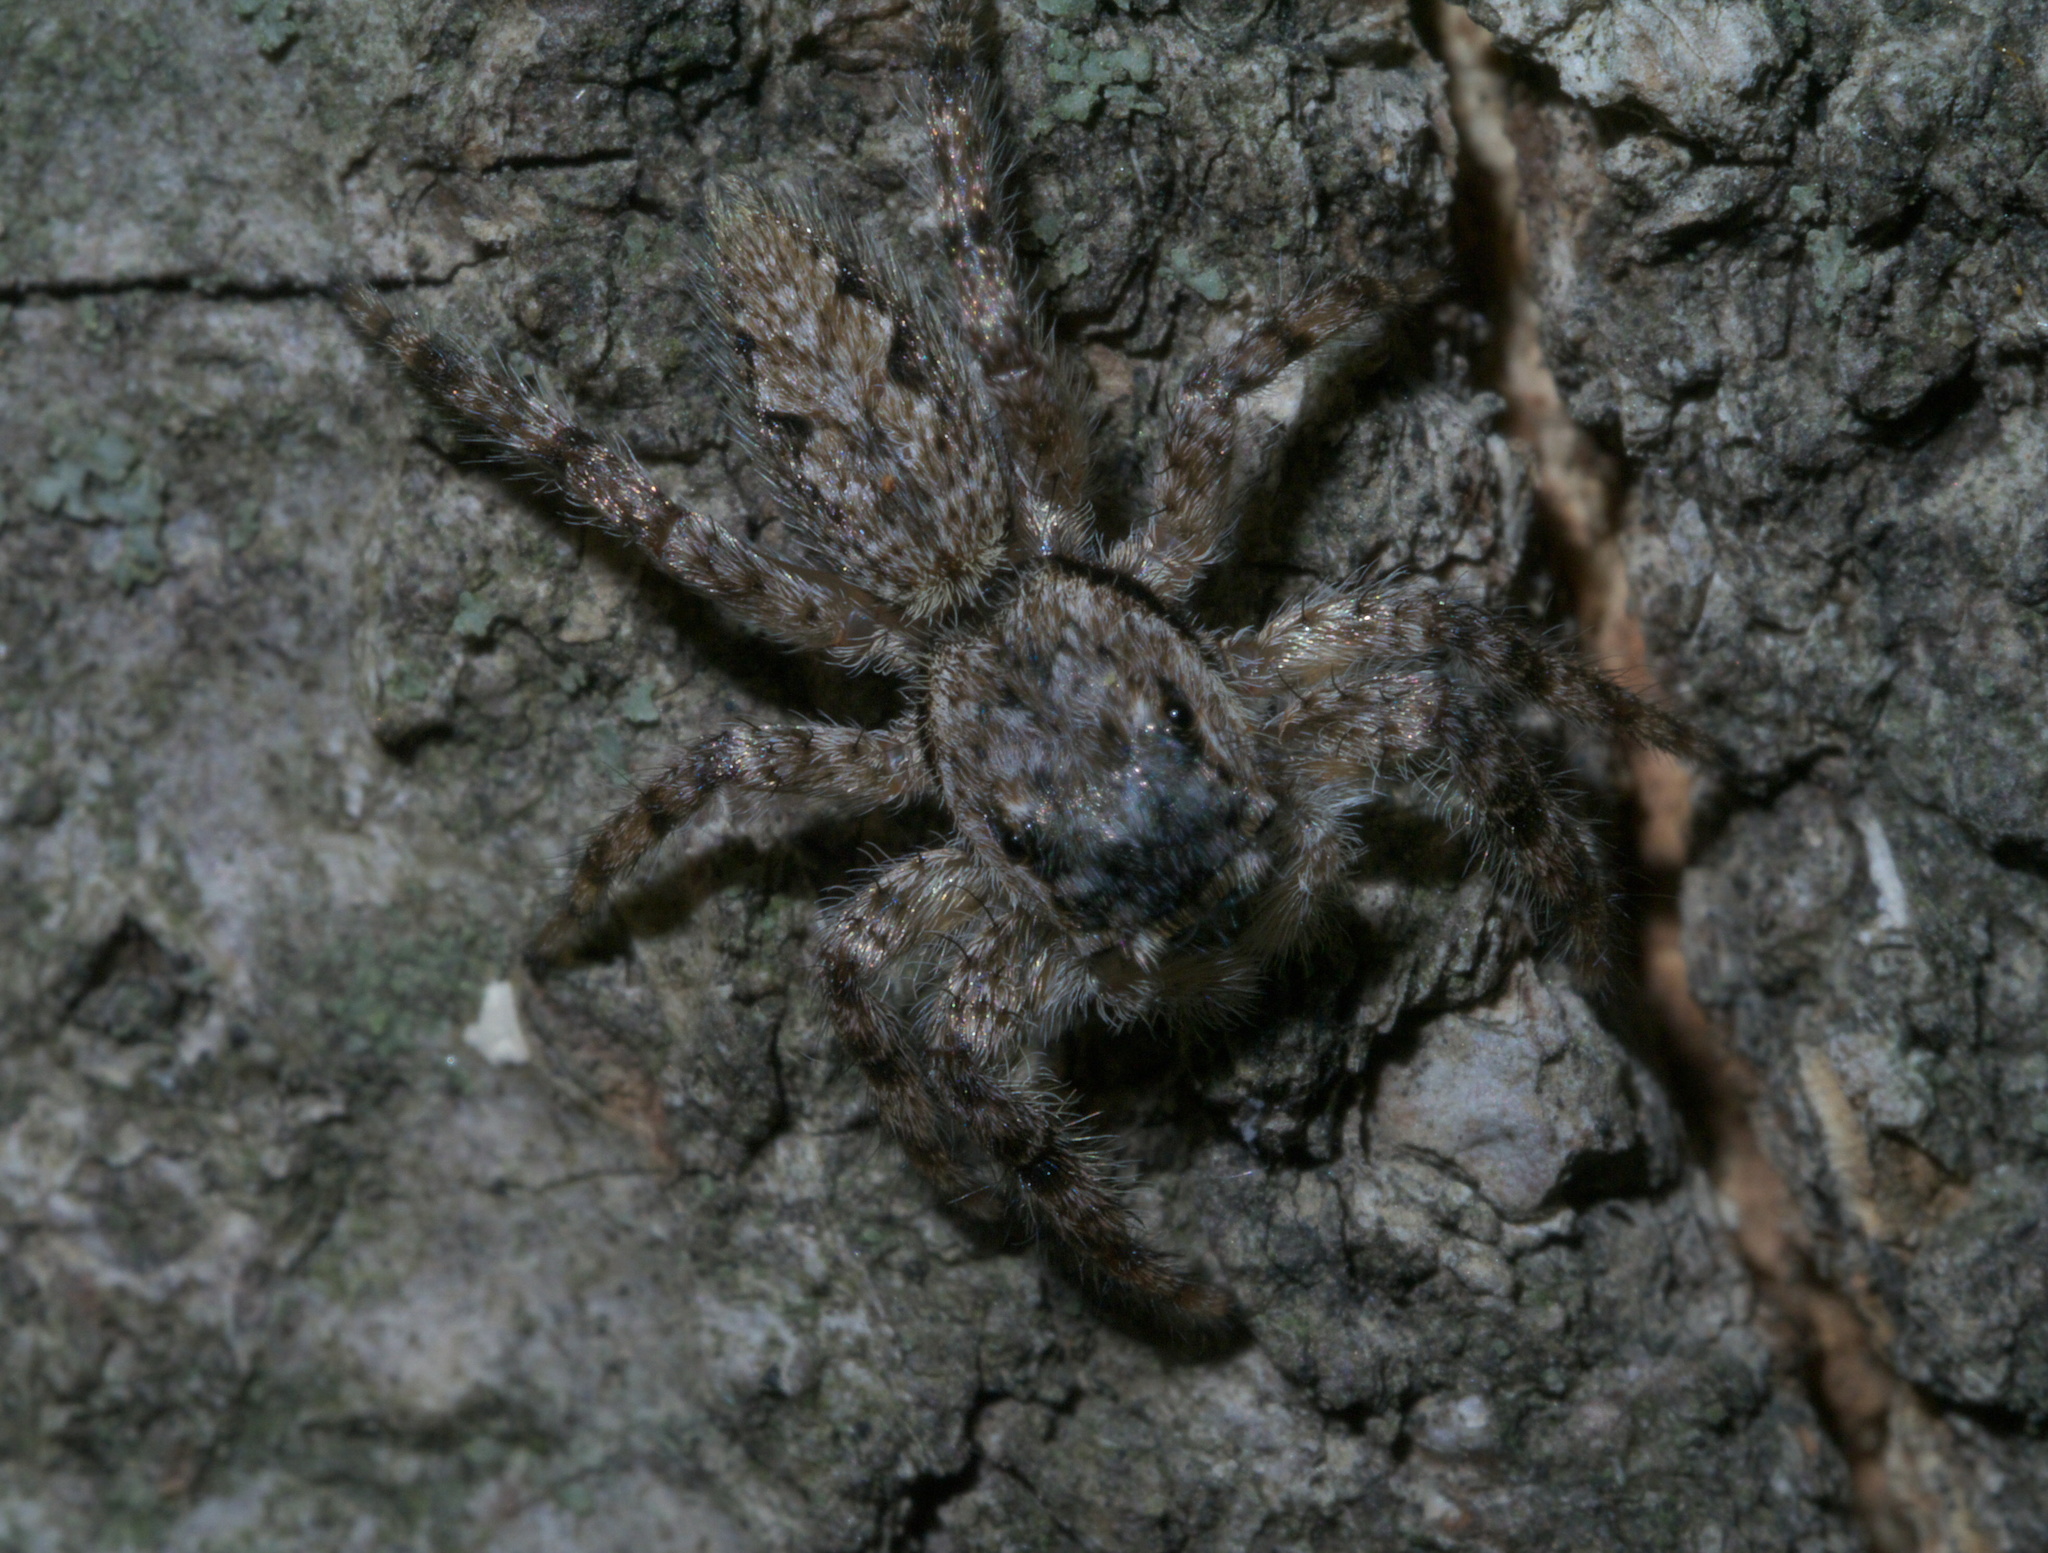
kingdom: Animalia
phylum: Arthropoda
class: Arachnida
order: Araneae
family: Salticidae
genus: Platycryptus
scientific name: Platycryptus undatus
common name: Tan jumping spider
